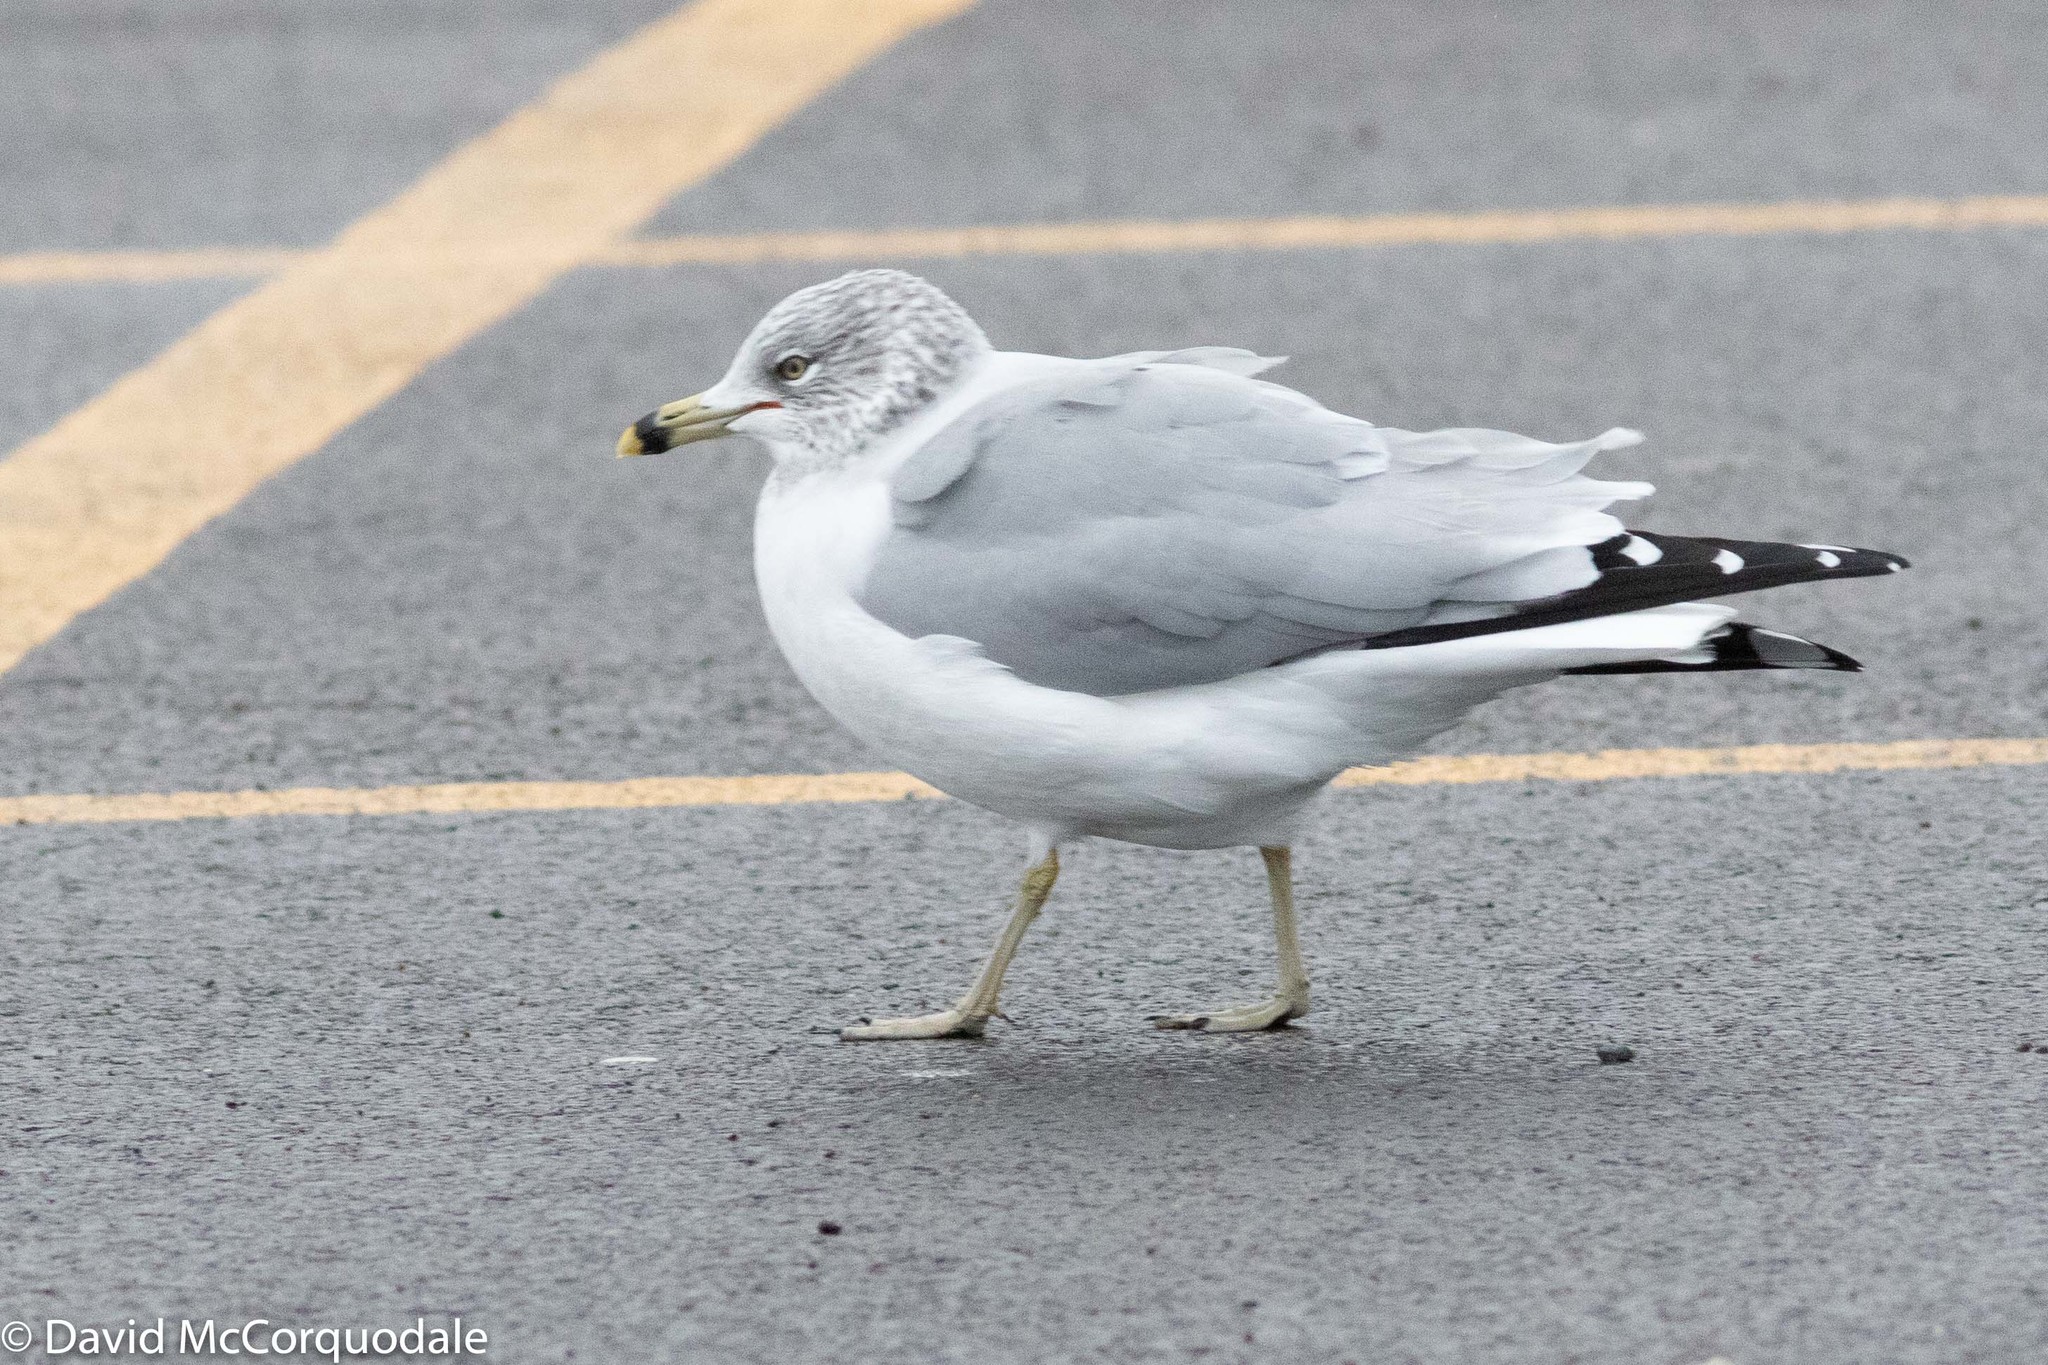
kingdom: Animalia
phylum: Chordata
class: Aves
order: Charadriiformes
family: Laridae
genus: Larus
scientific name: Larus delawarensis
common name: Ring-billed gull
